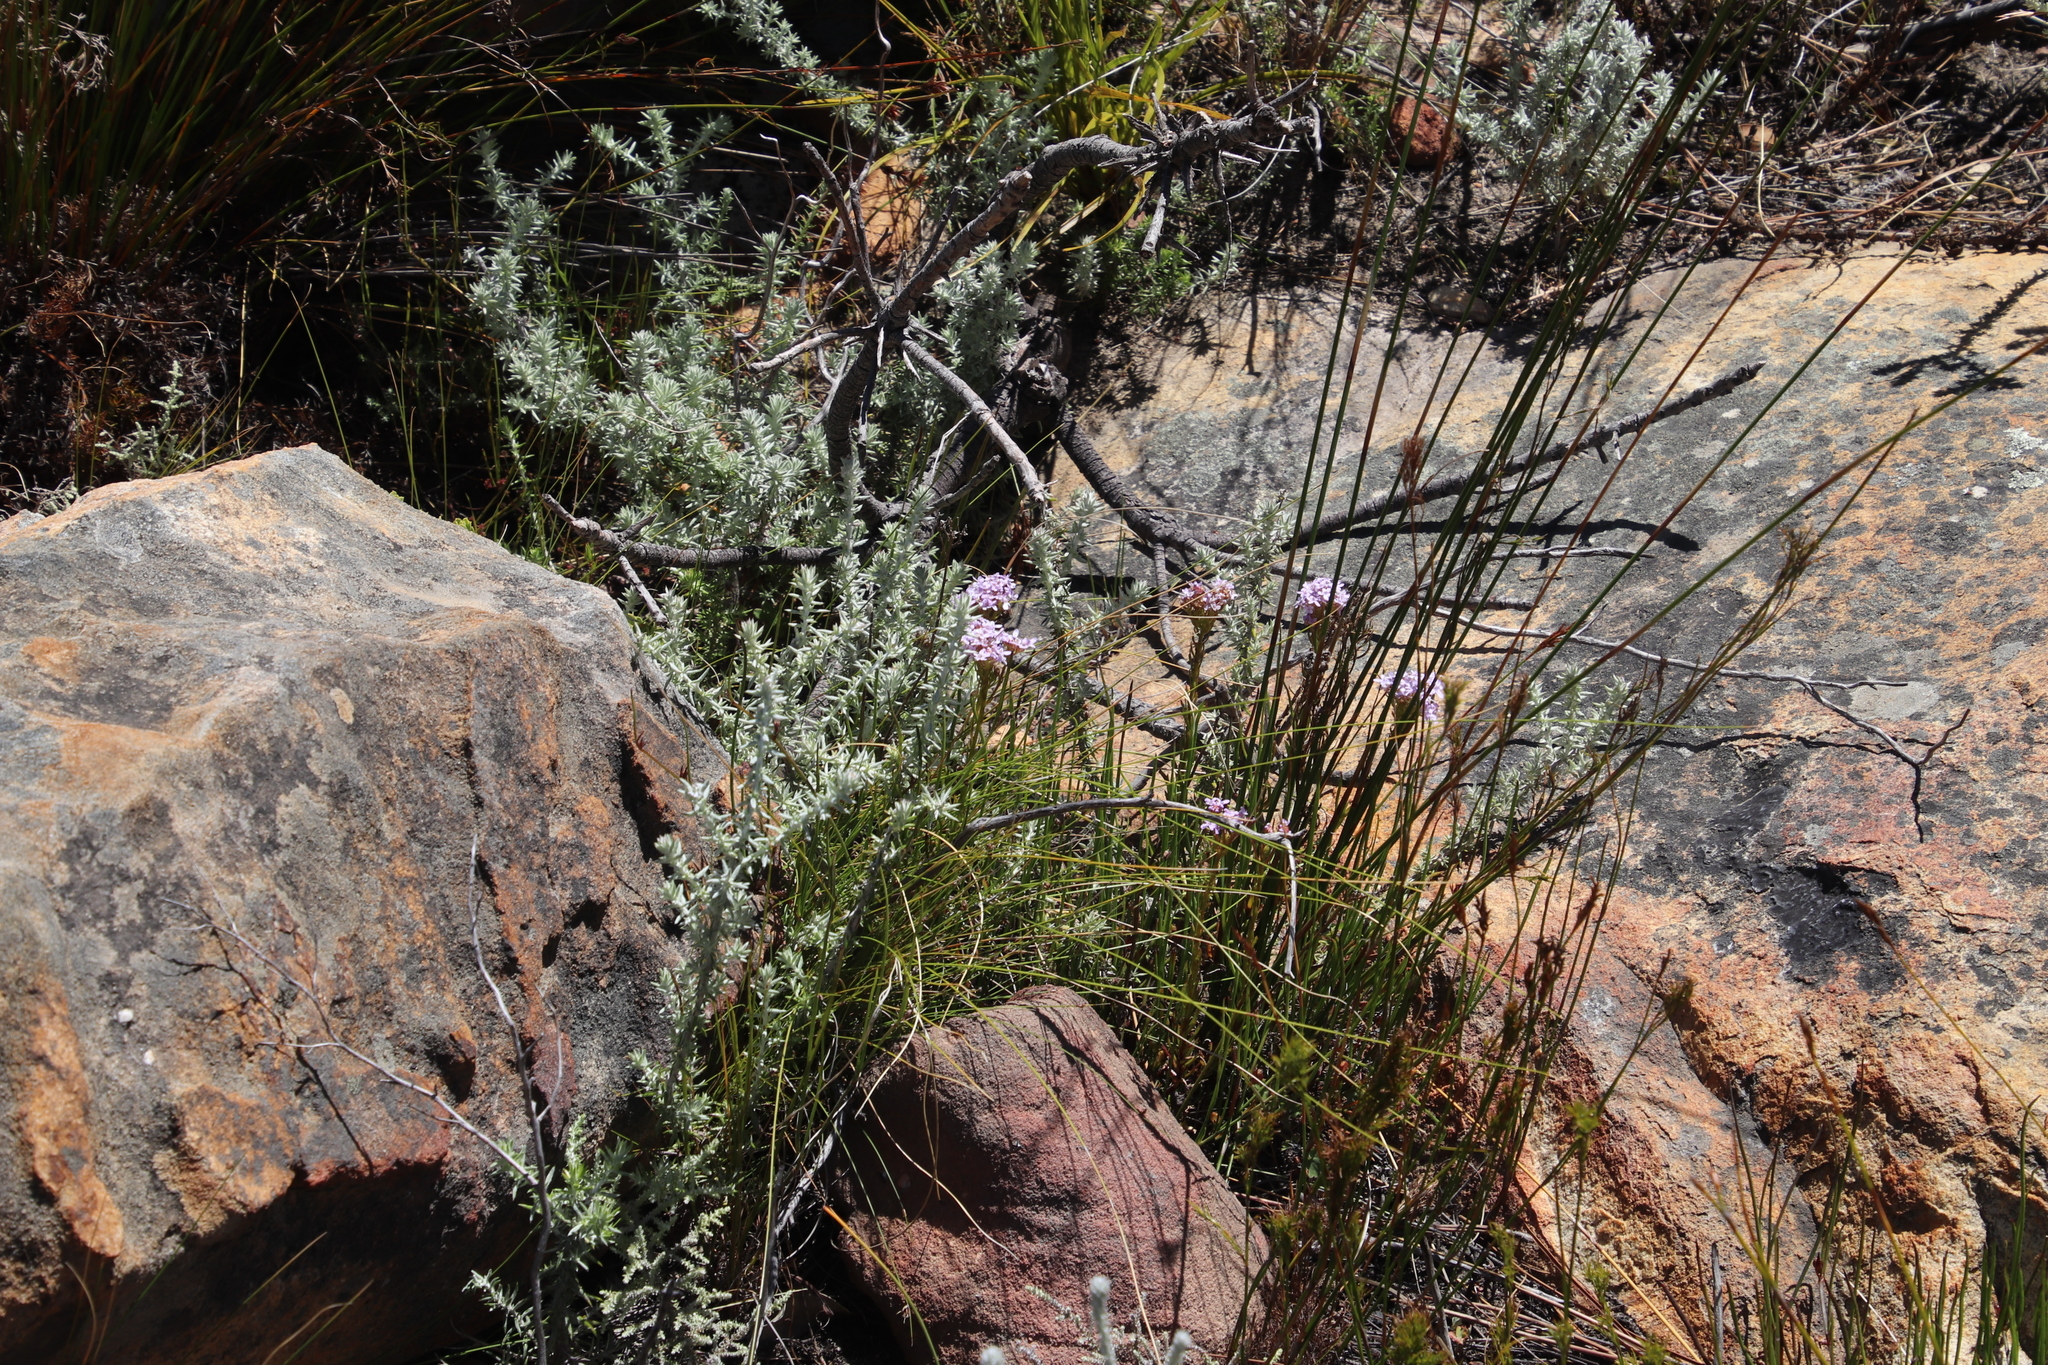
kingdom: Plantae
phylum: Tracheophyta
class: Magnoliopsida
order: Lamiales
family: Scrophulariaceae
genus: Pseudoselago
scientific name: Pseudoselago spuria
